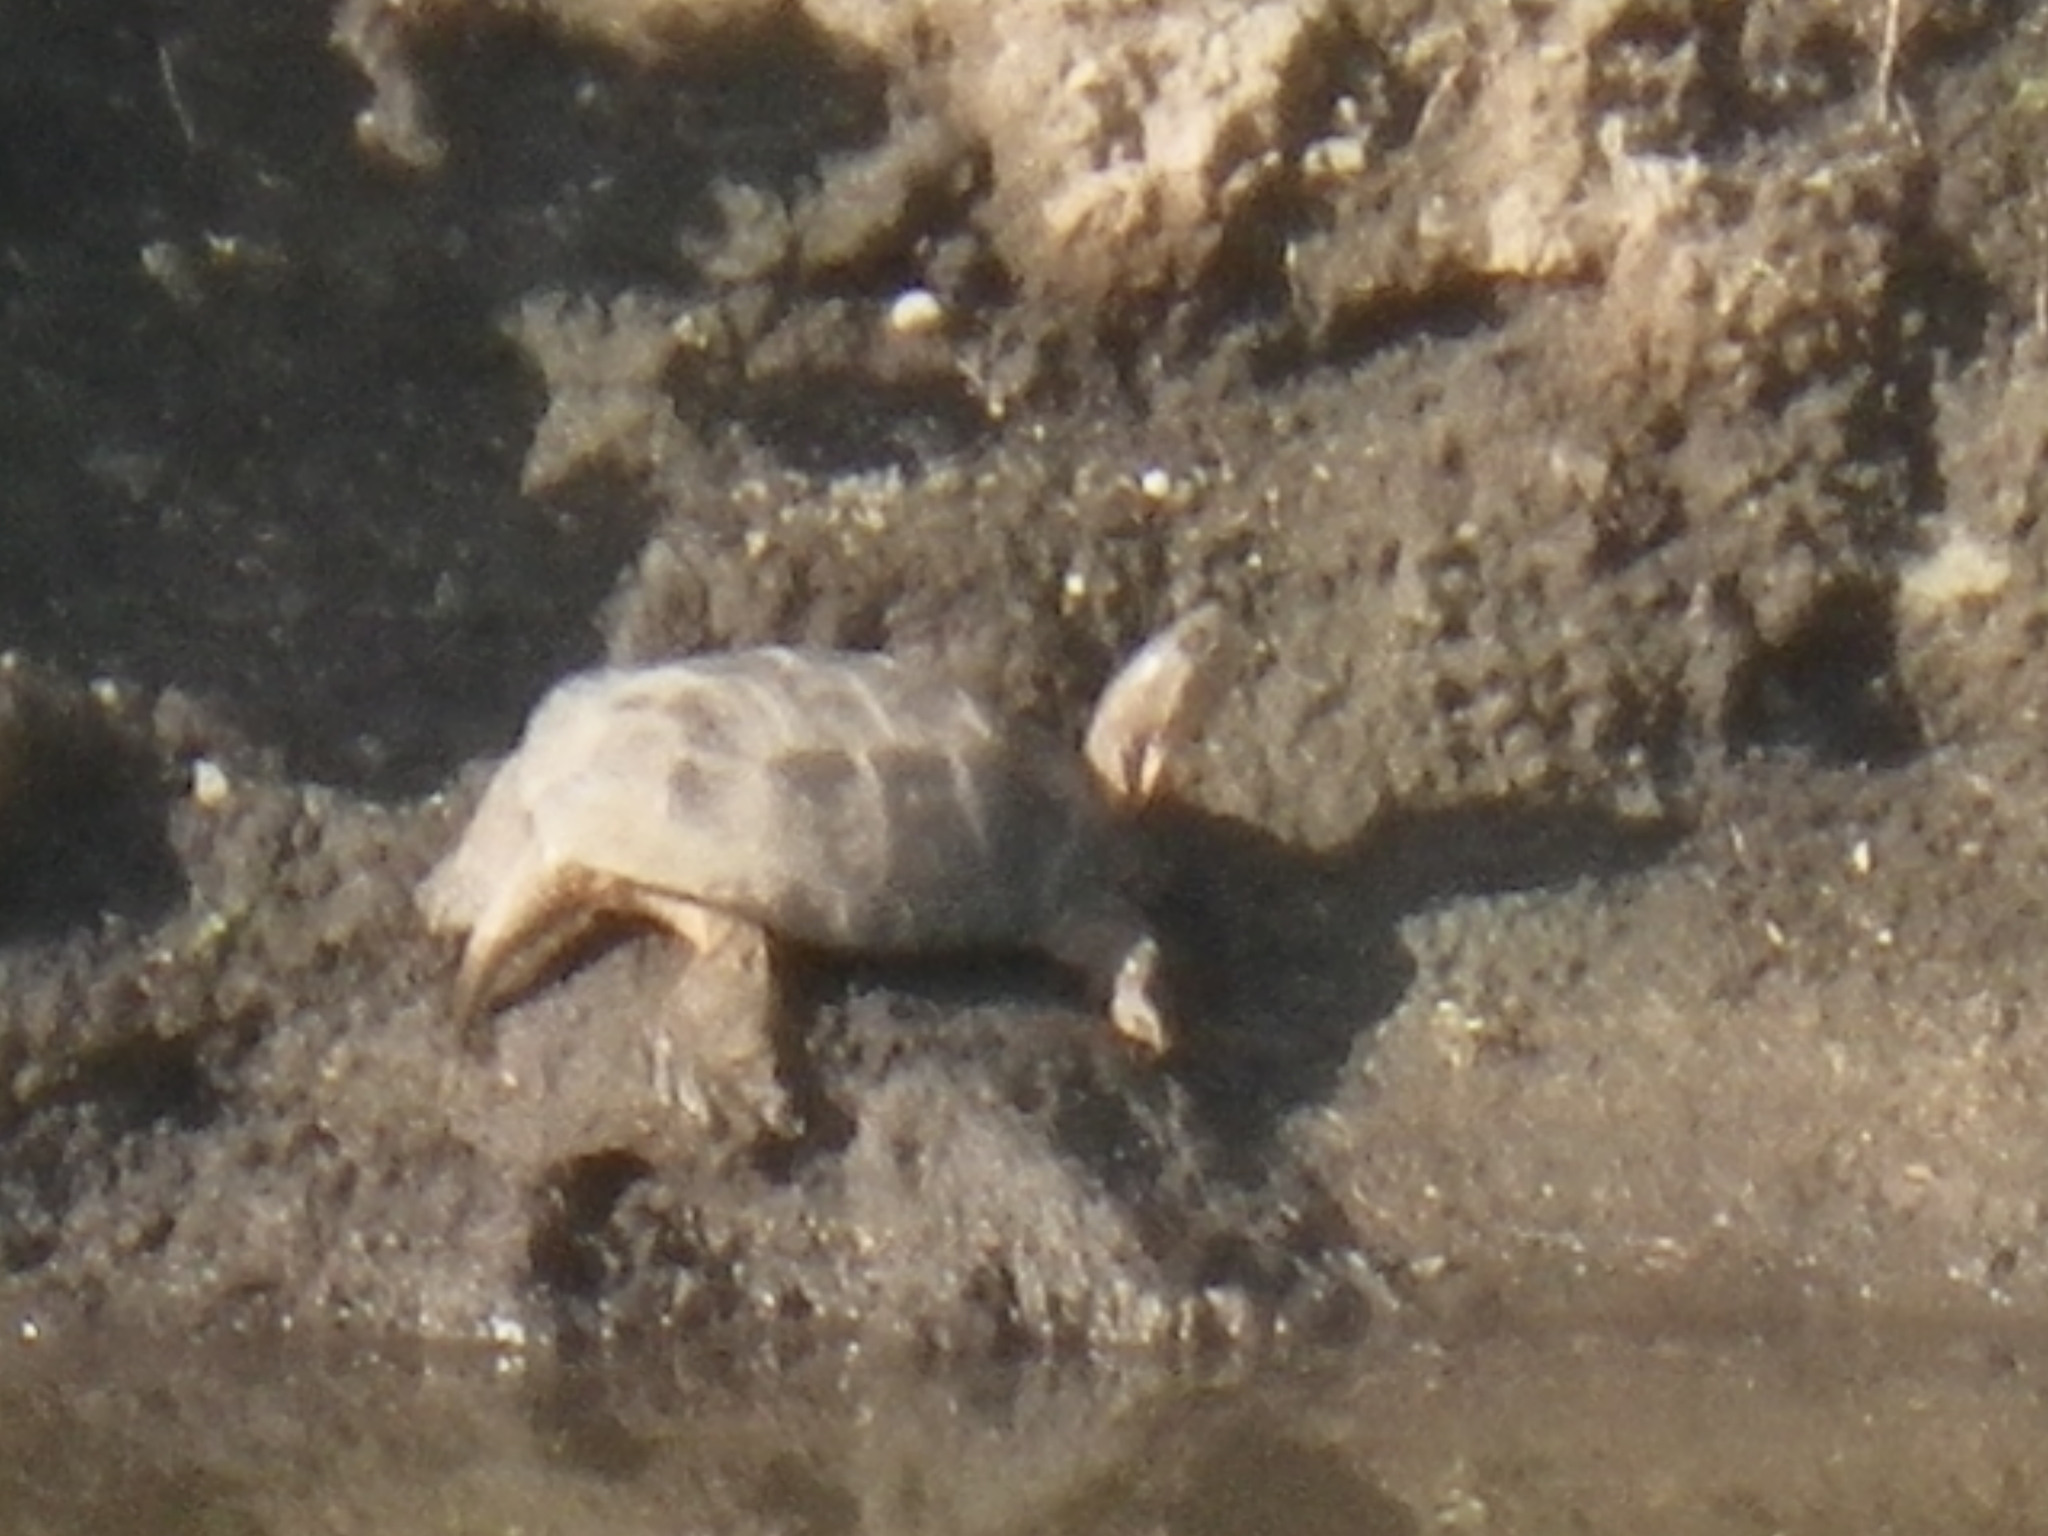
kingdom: Animalia
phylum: Chordata
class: Testudines
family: Emydidae
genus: Actinemys
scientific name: Actinemys marmorata
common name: Western pond turtle
